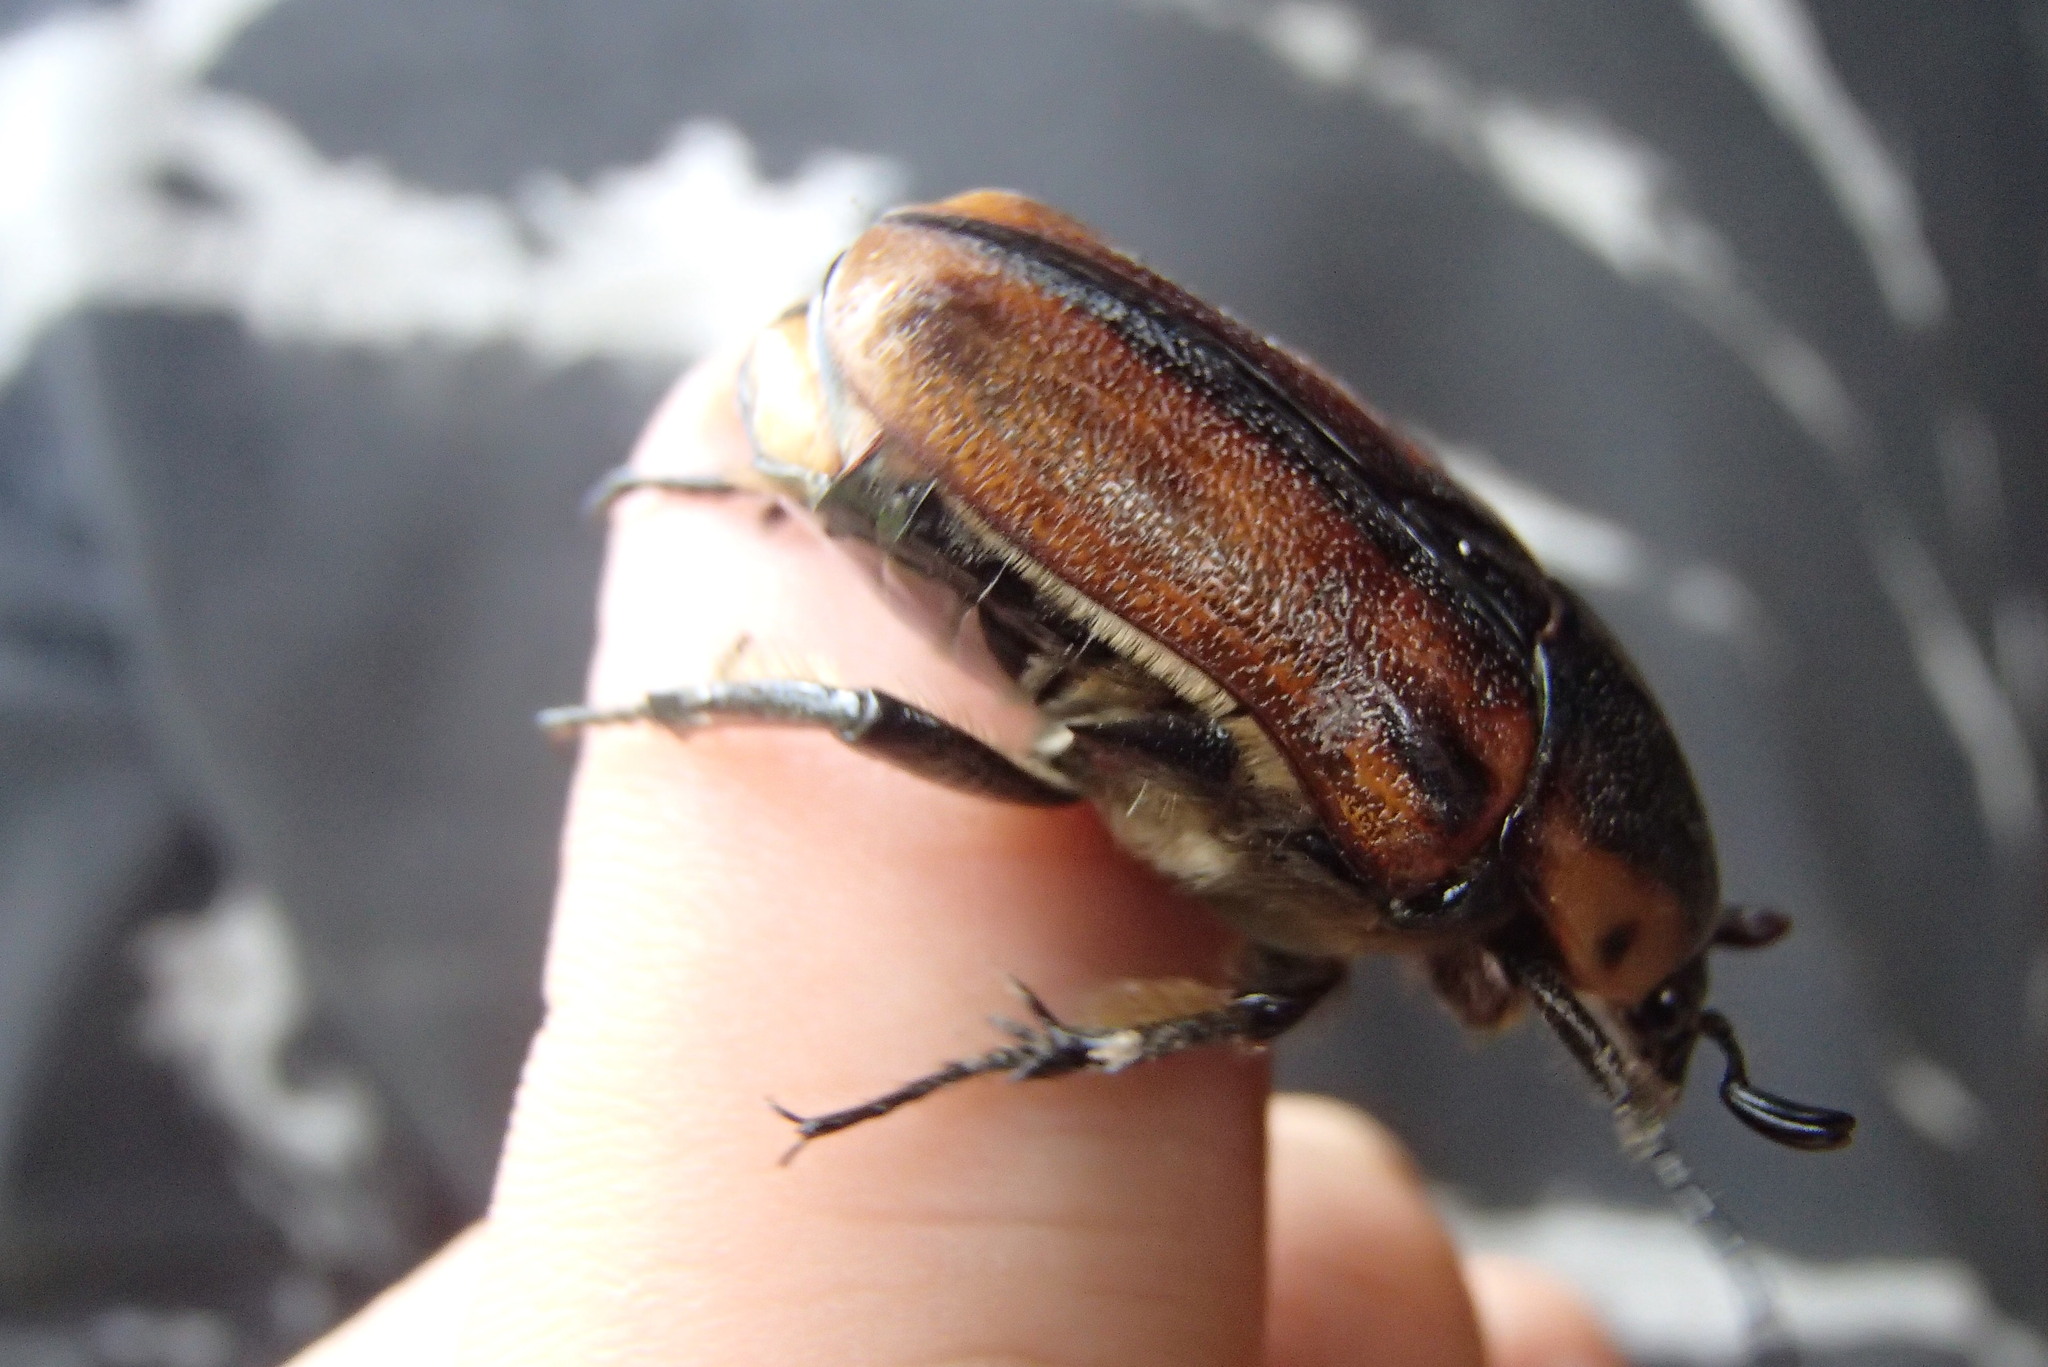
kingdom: Animalia
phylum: Arthropoda
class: Insecta
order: Coleoptera
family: Scarabaeidae
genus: Chondropyga
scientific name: Chondropyga dorsalis
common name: Cowboy beetle
